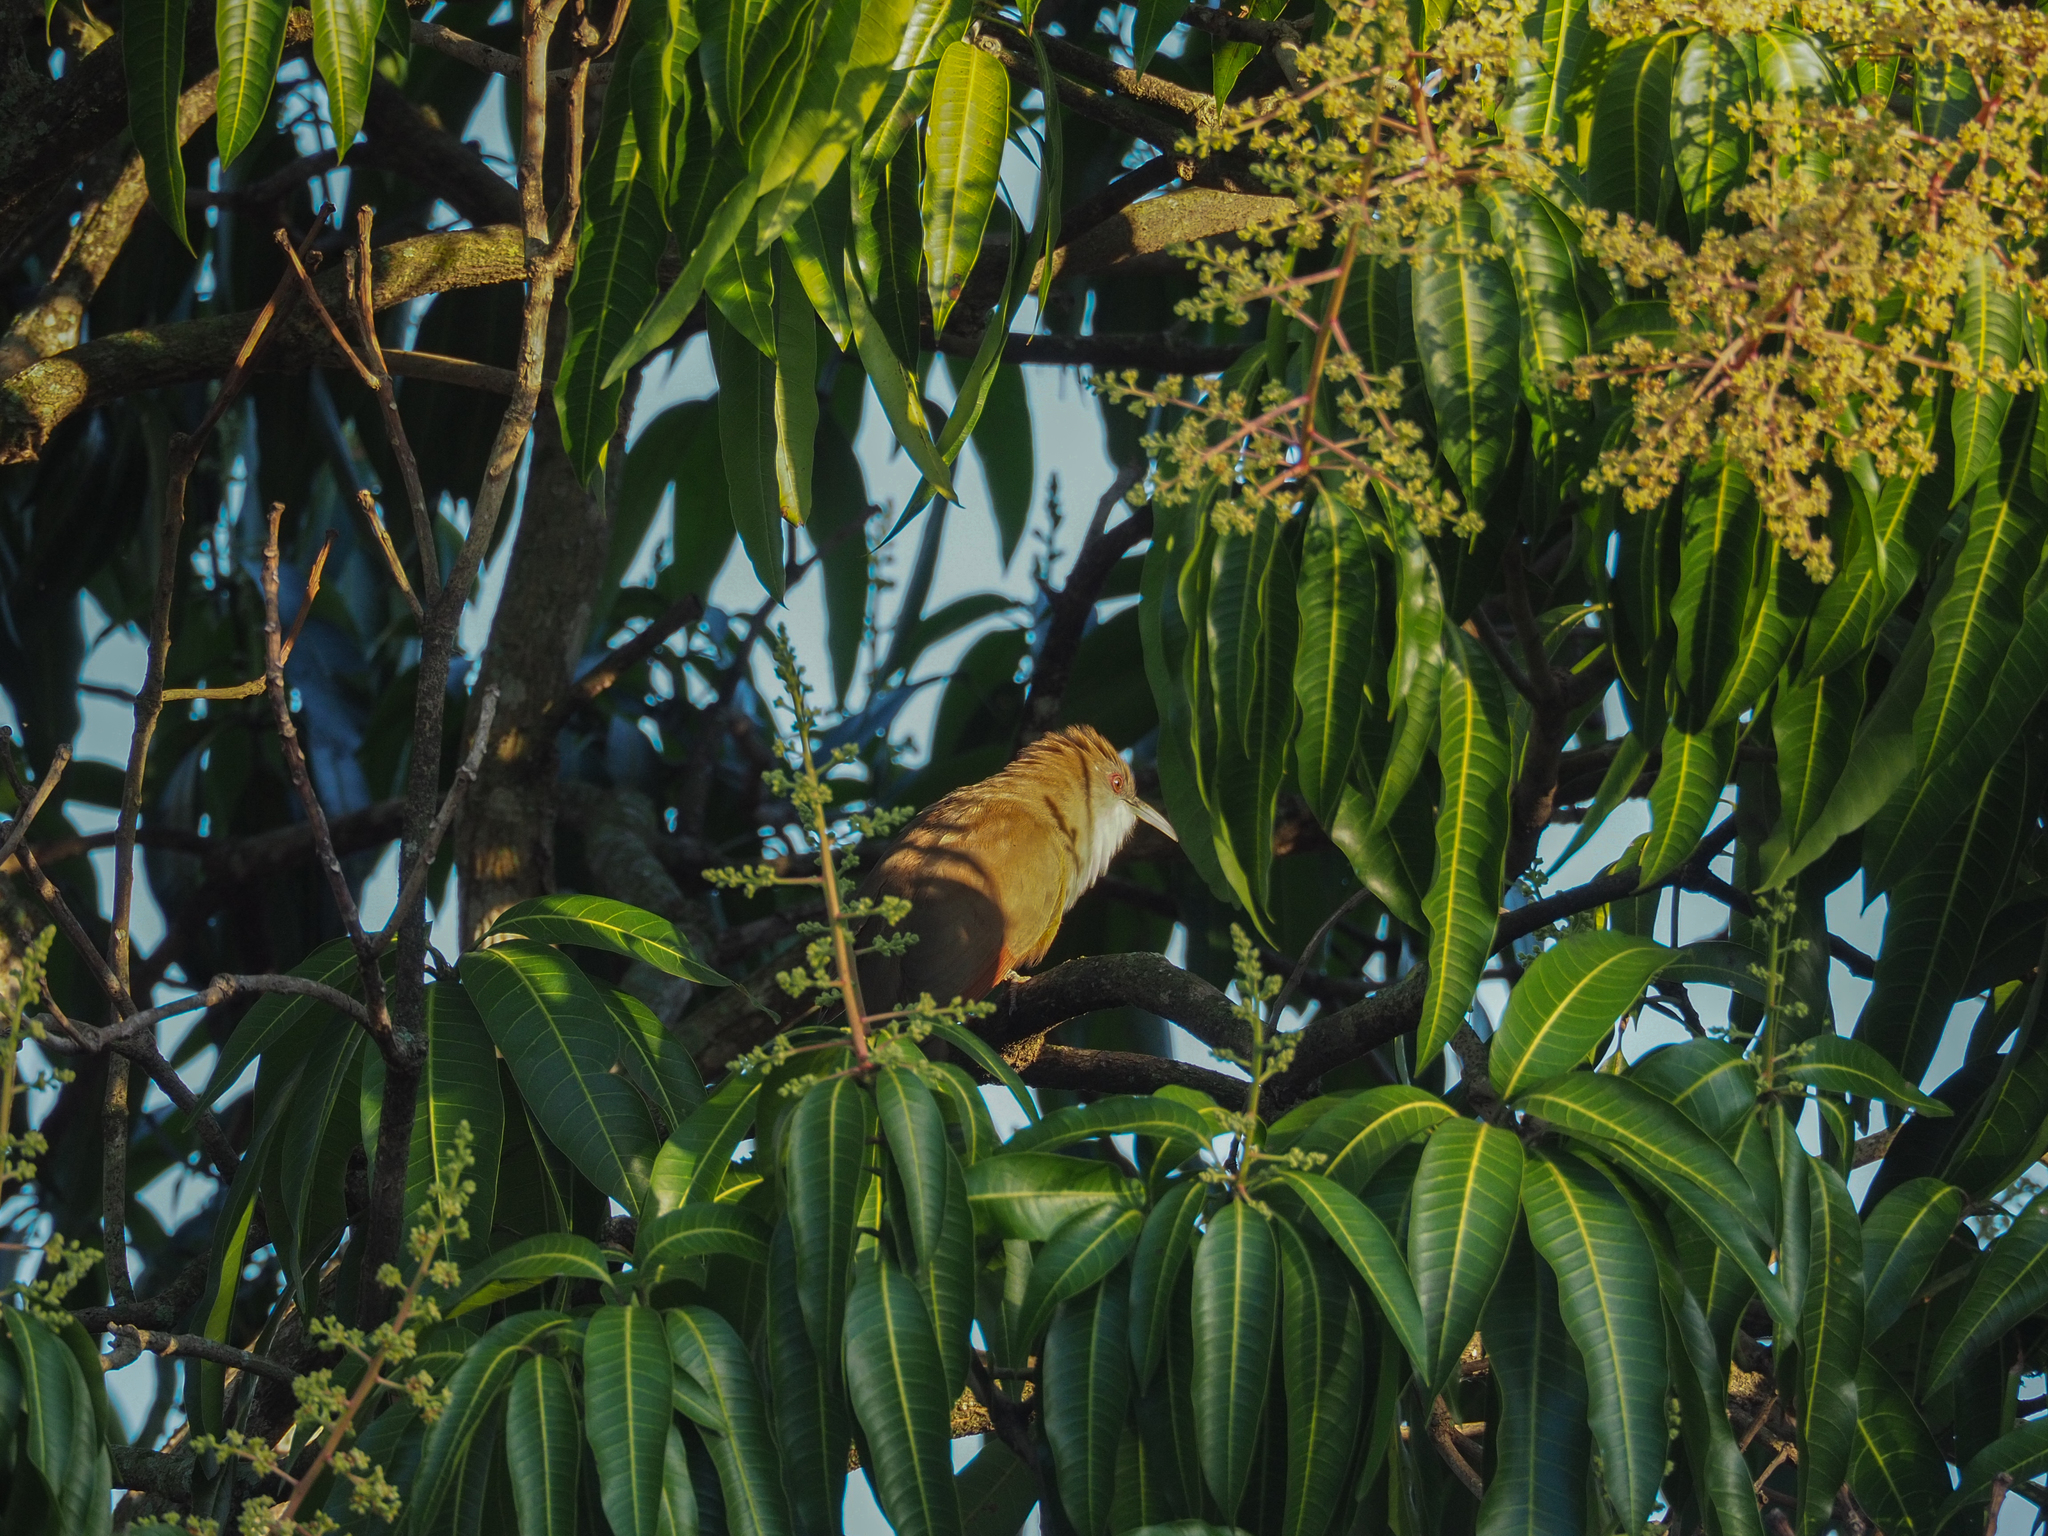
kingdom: Plantae
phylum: Tracheophyta
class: Magnoliopsida
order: Sapindales
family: Anacardiaceae
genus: Mangifera
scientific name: Mangifera indica
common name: Mango
